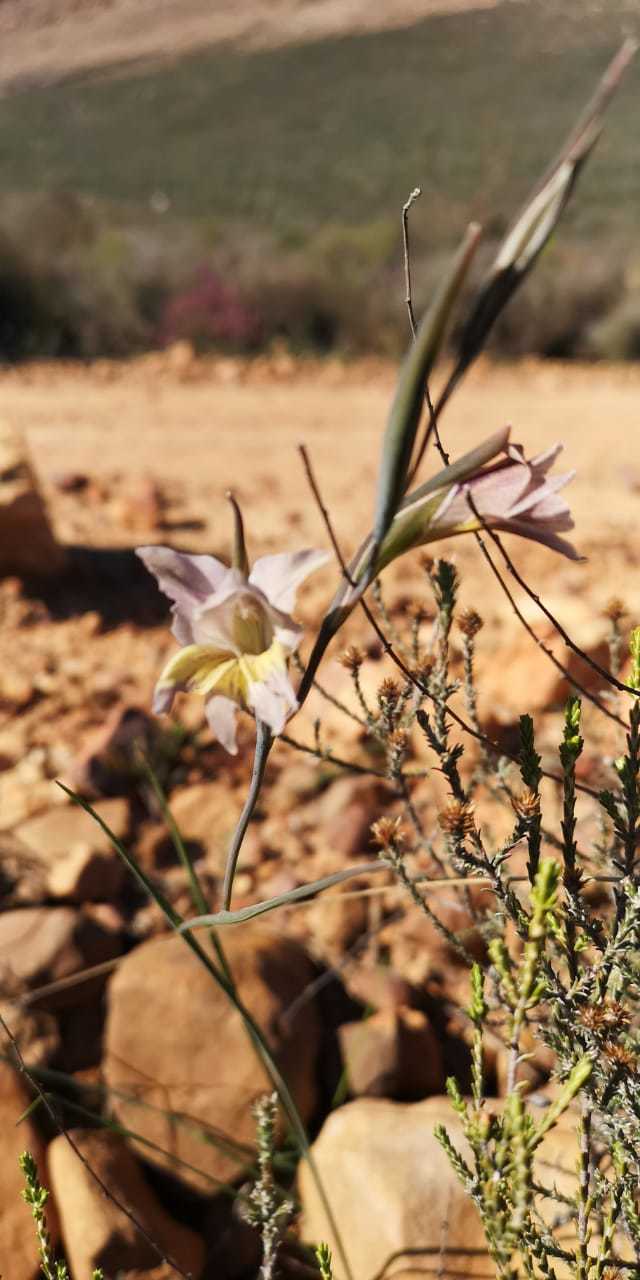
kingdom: Plantae
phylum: Tracheophyta
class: Liliopsida
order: Asparagales
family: Iridaceae
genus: Gladiolus
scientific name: Gladiolus carinatus
